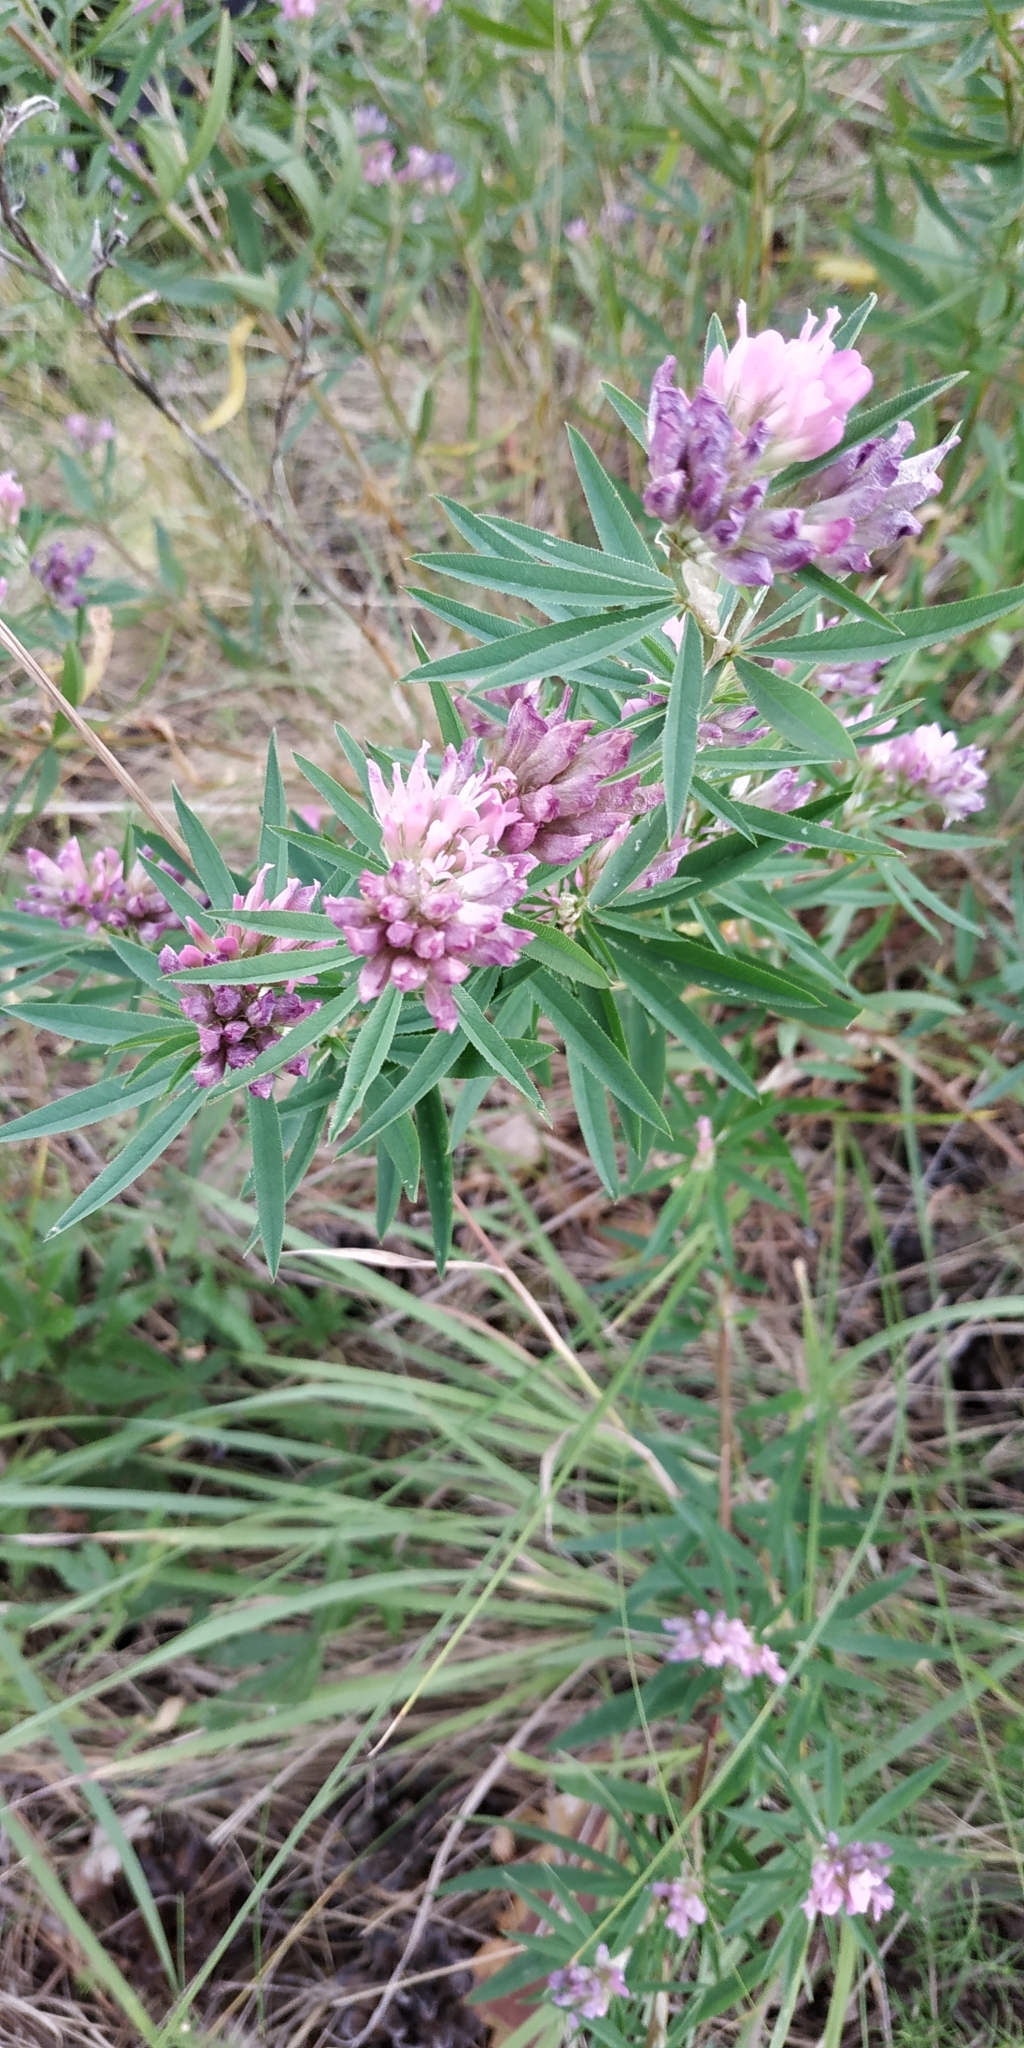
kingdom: Plantae
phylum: Tracheophyta
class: Magnoliopsida
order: Fabales
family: Fabaceae
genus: Trifolium
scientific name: Trifolium lupinaster
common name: Lupine clover
